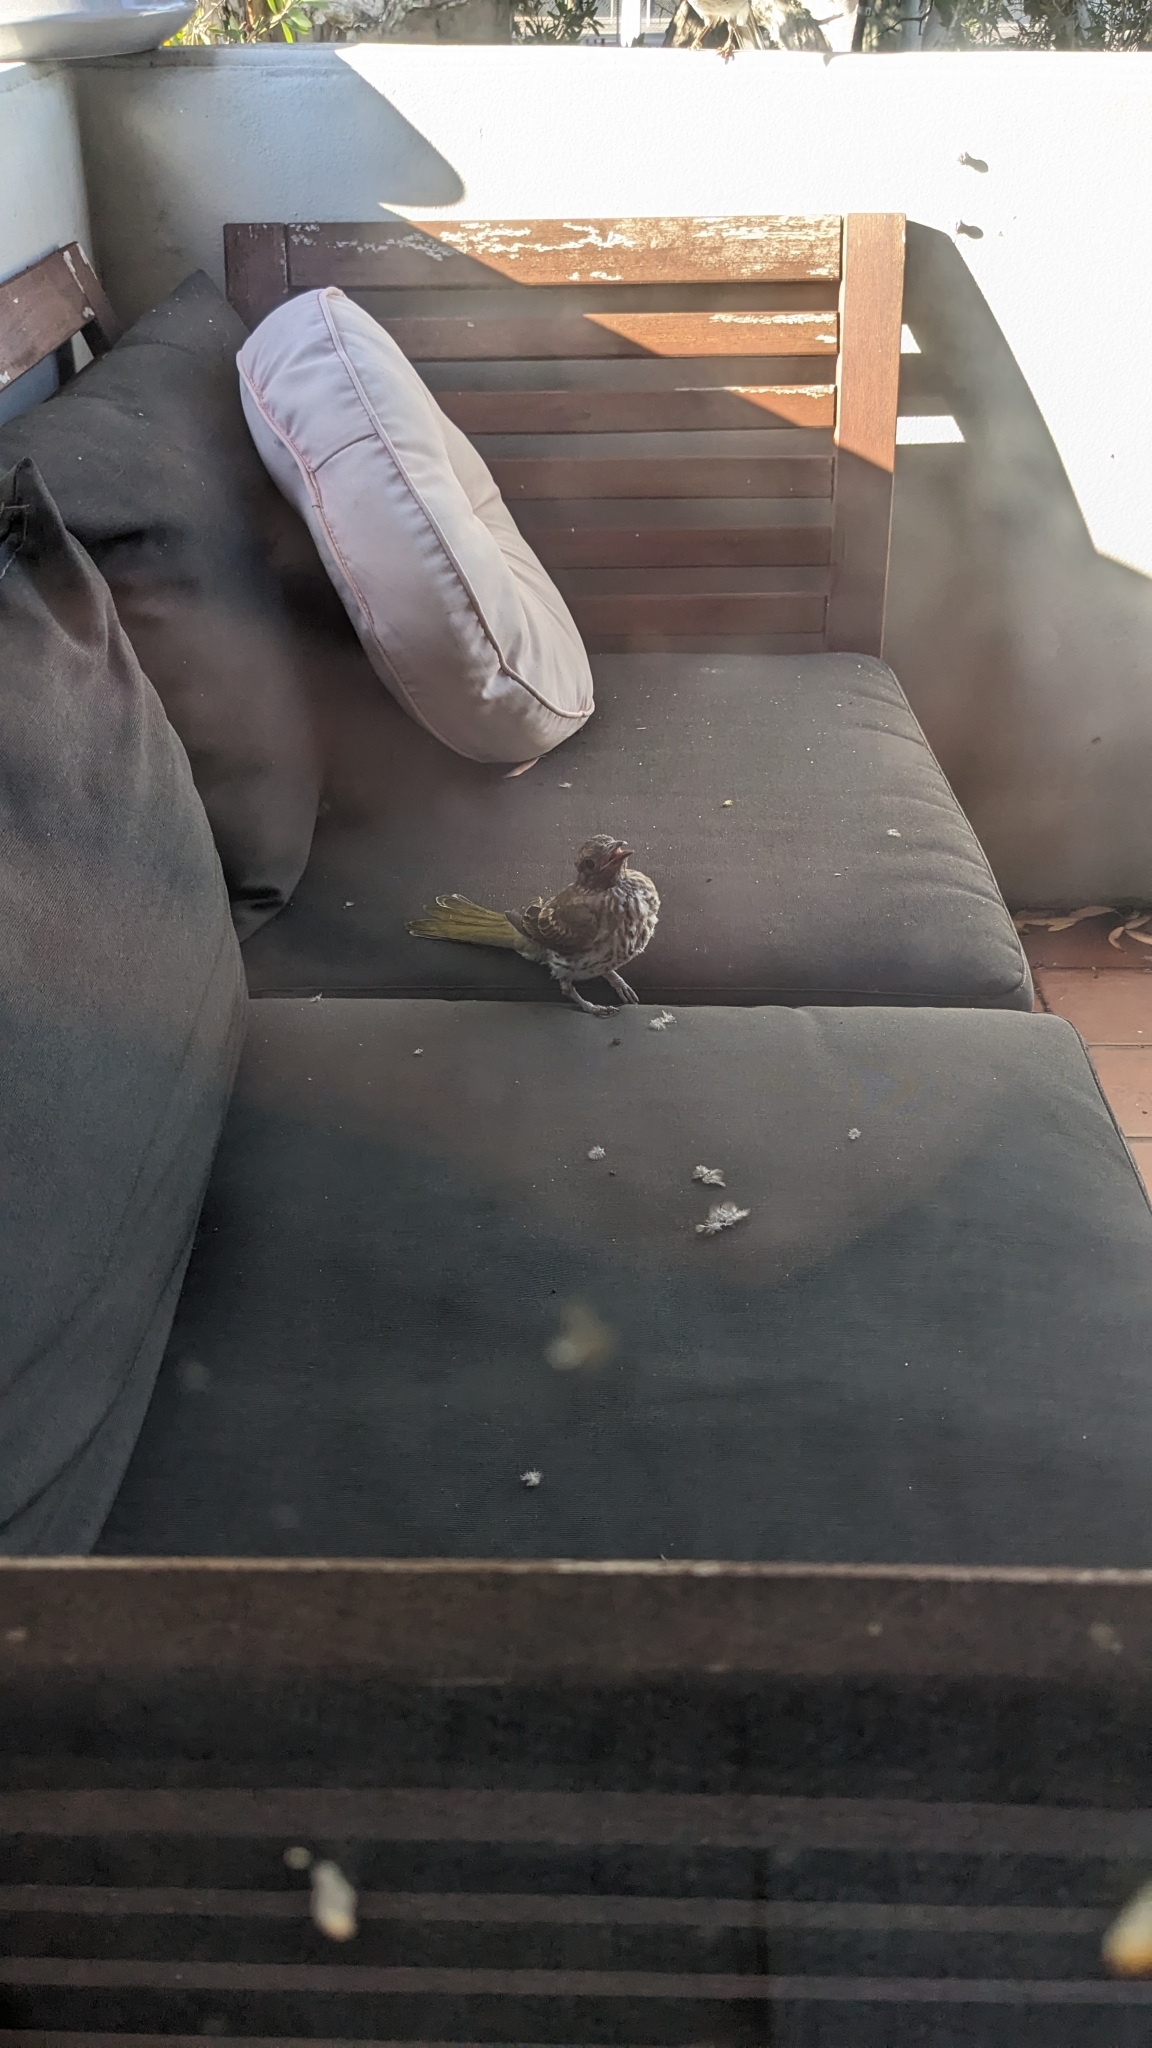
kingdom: Animalia
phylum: Chordata
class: Aves
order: Passeriformes
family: Oriolidae
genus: Sphecotheres
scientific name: Sphecotheres vieilloti
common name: Australasian figbird
